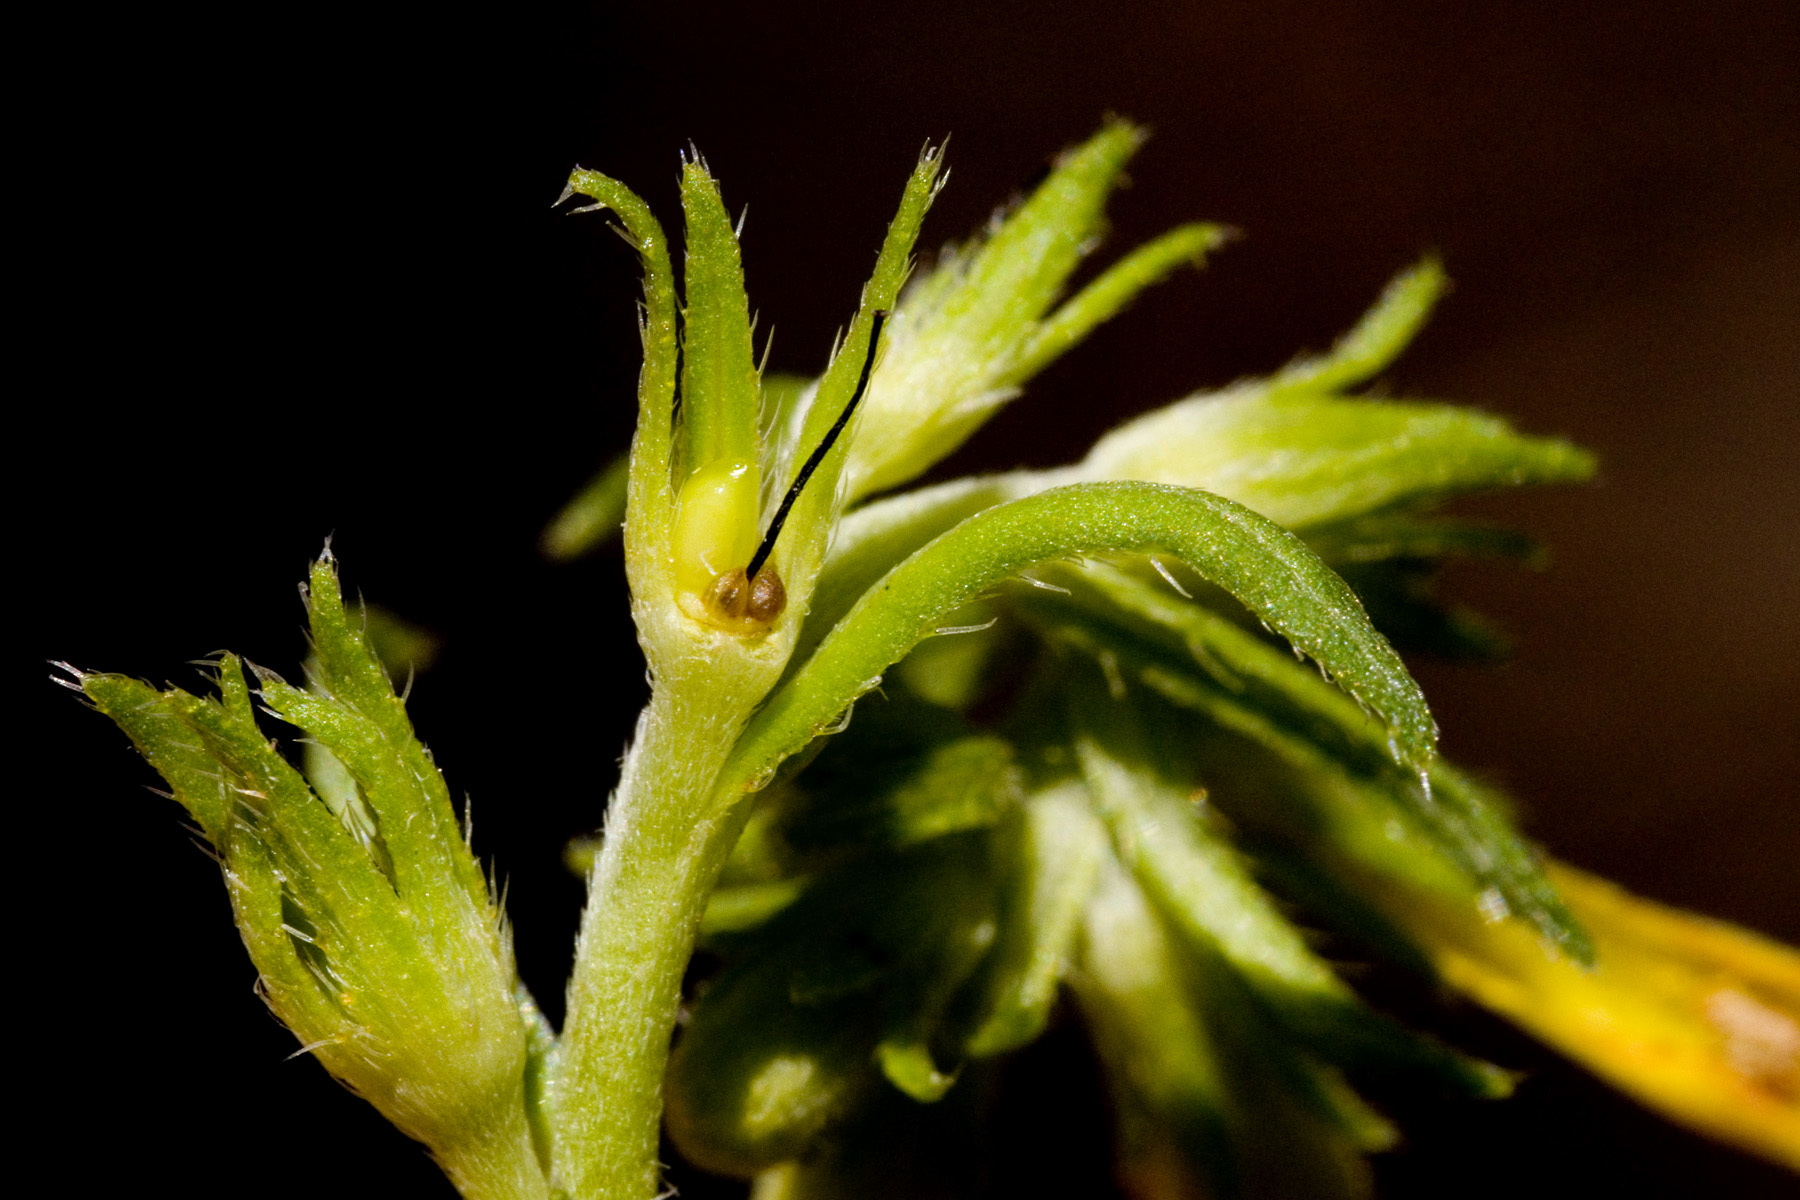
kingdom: Plantae
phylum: Tracheophyta
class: Magnoliopsida
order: Boraginales
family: Boraginaceae
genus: Lithospermum
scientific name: Lithospermum multiflorum
